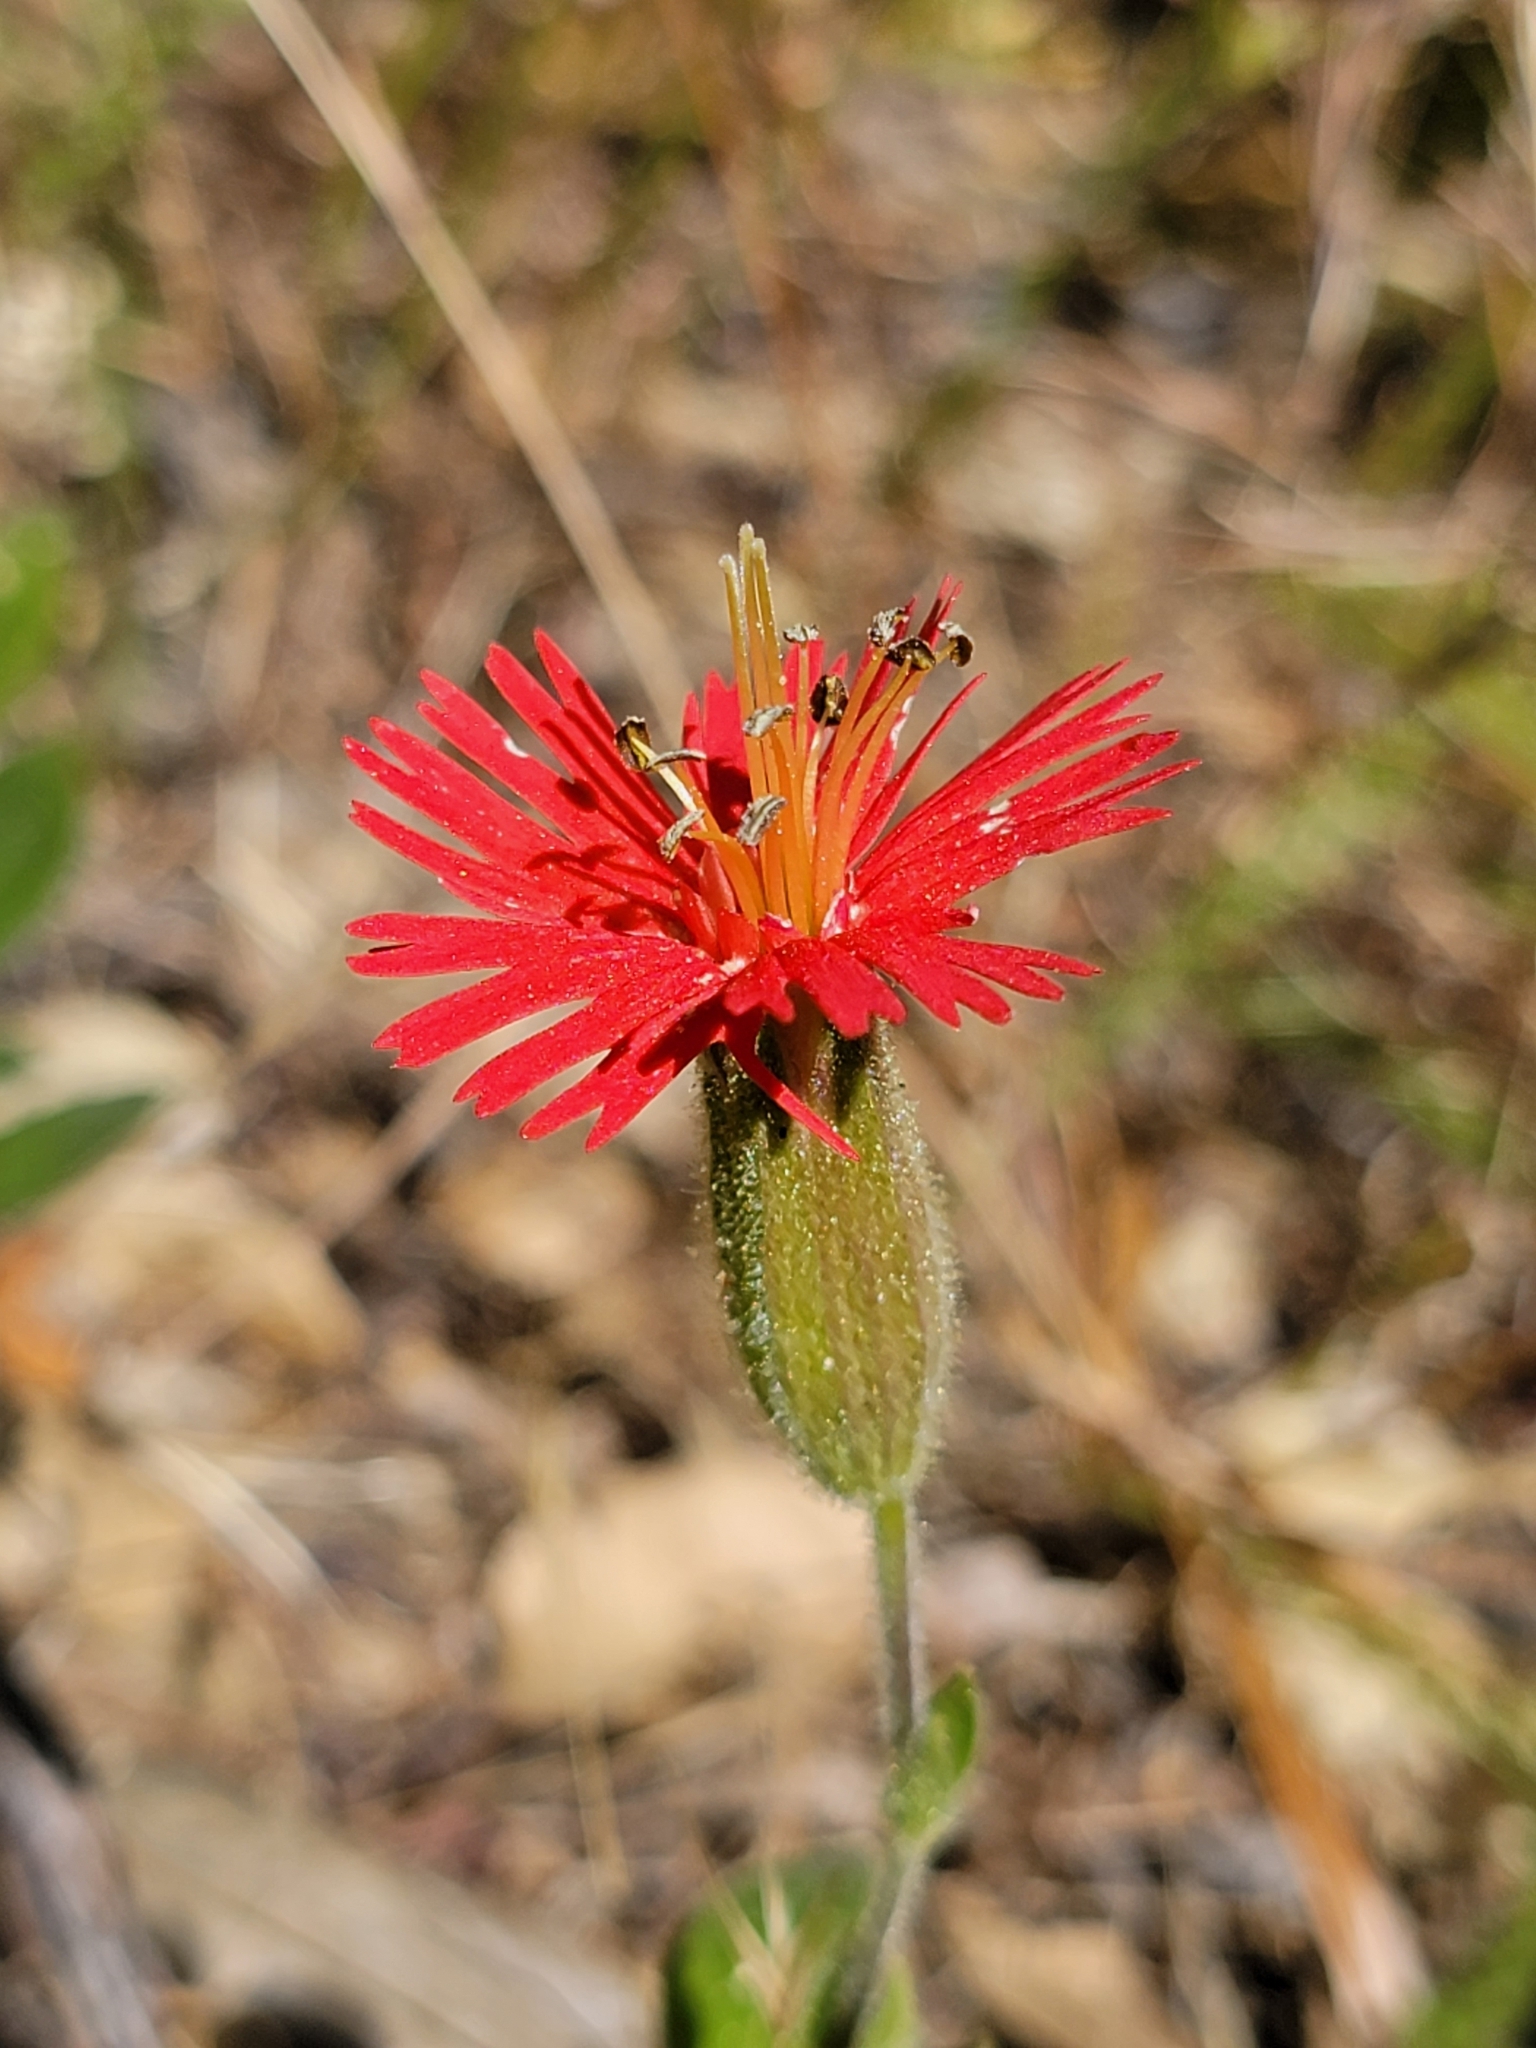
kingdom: Plantae
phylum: Tracheophyta
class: Magnoliopsida
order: Caryophyllales
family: Caryophyllaceae
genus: Silene
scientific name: Silene laciniata
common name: Indian-pink
